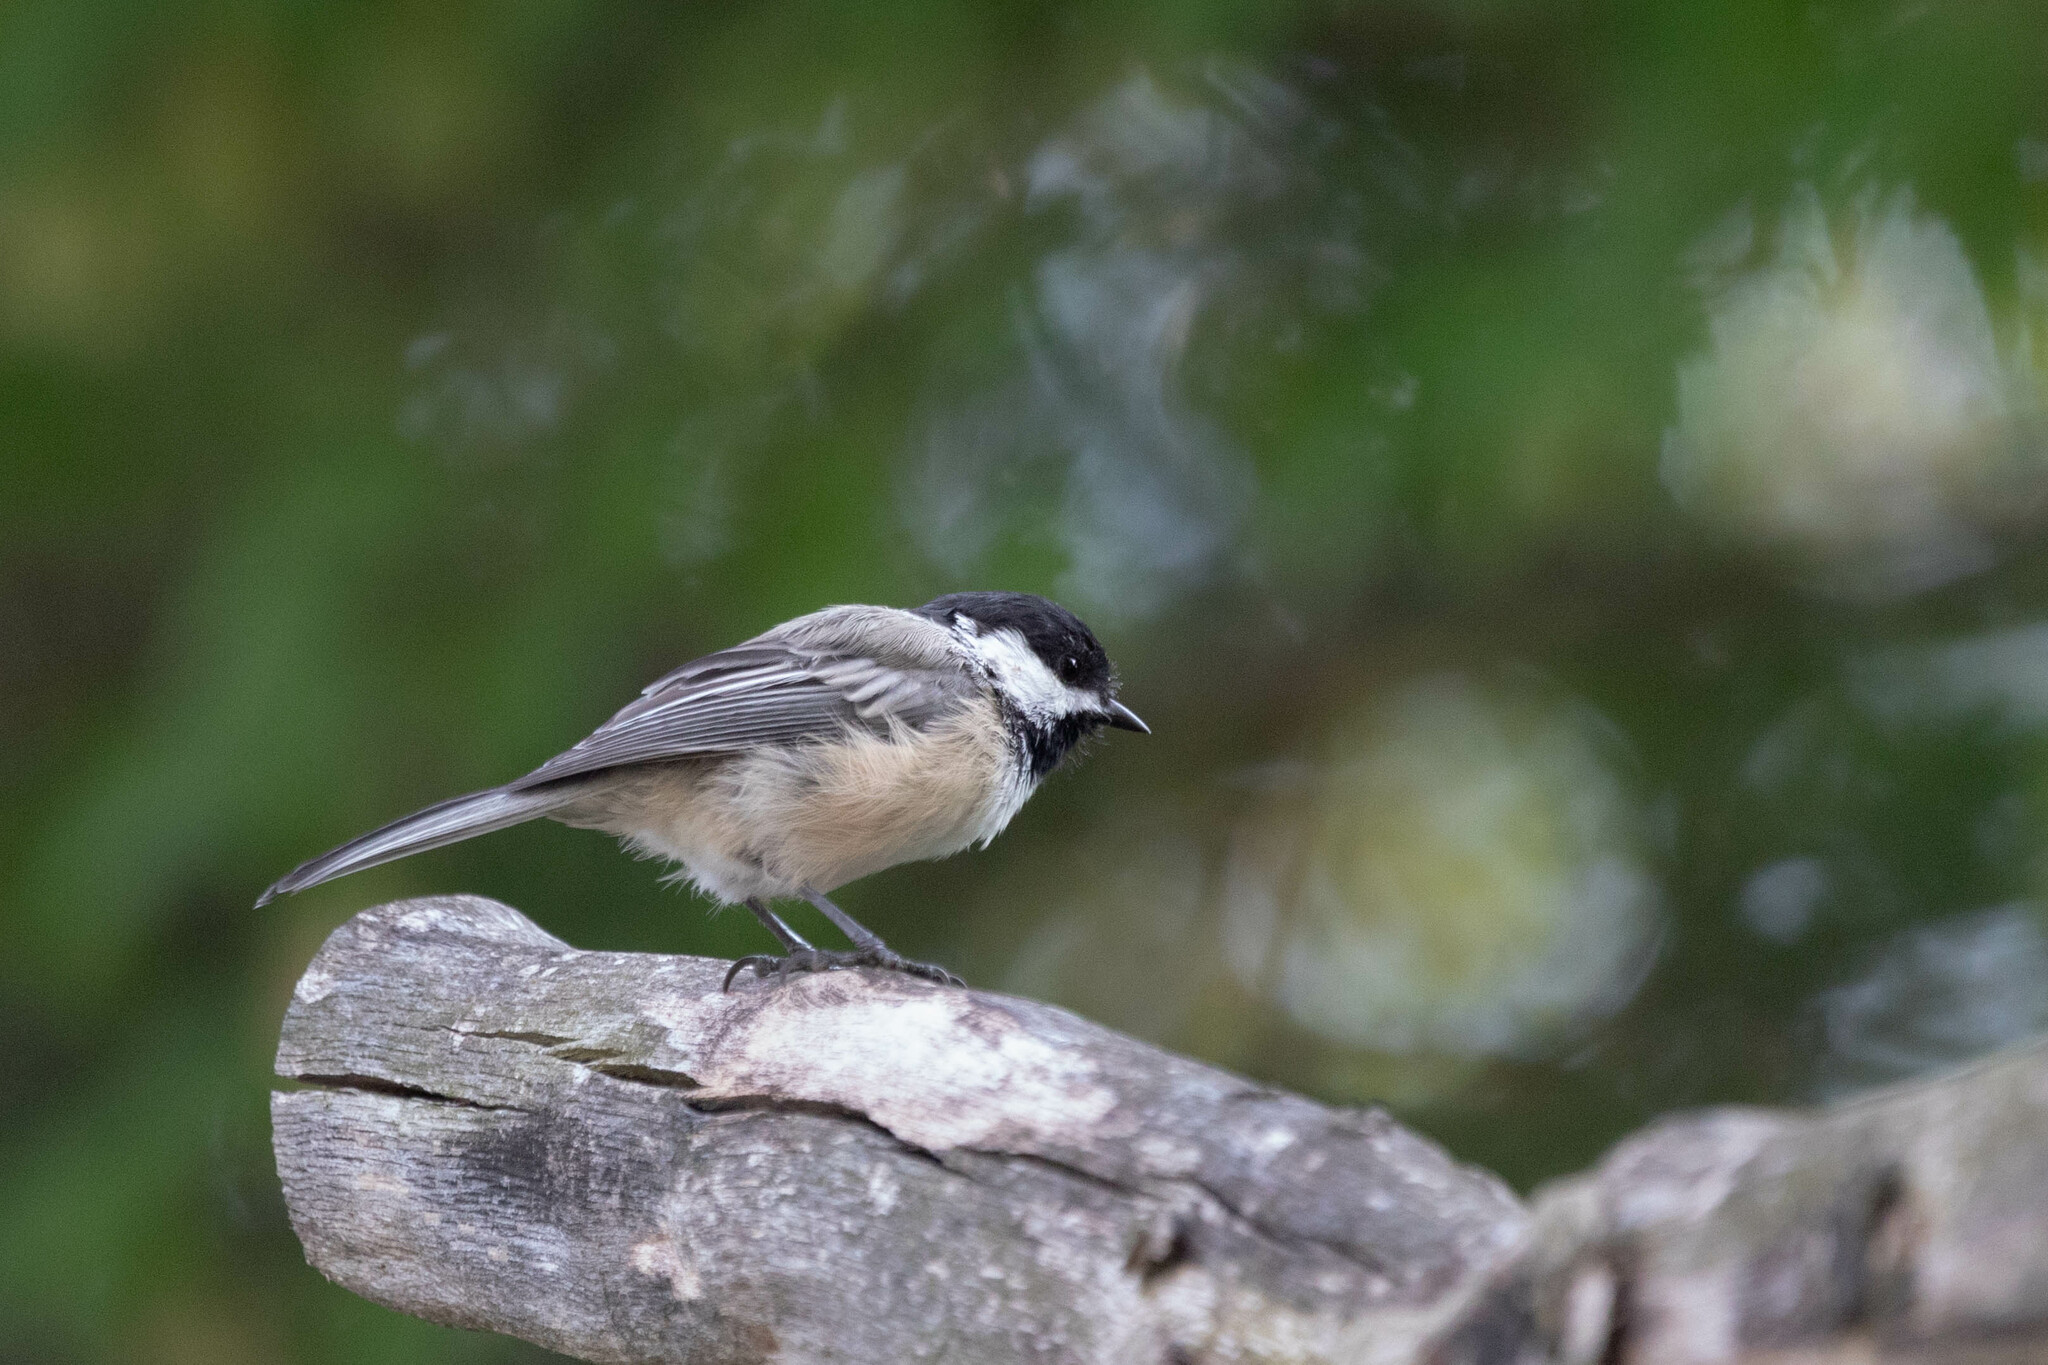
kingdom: Animalia
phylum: Chordata
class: Aves
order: Passeriformes
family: Paridae
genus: Poecile
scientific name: Poecile atricapillus
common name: Black-capped chickadee
